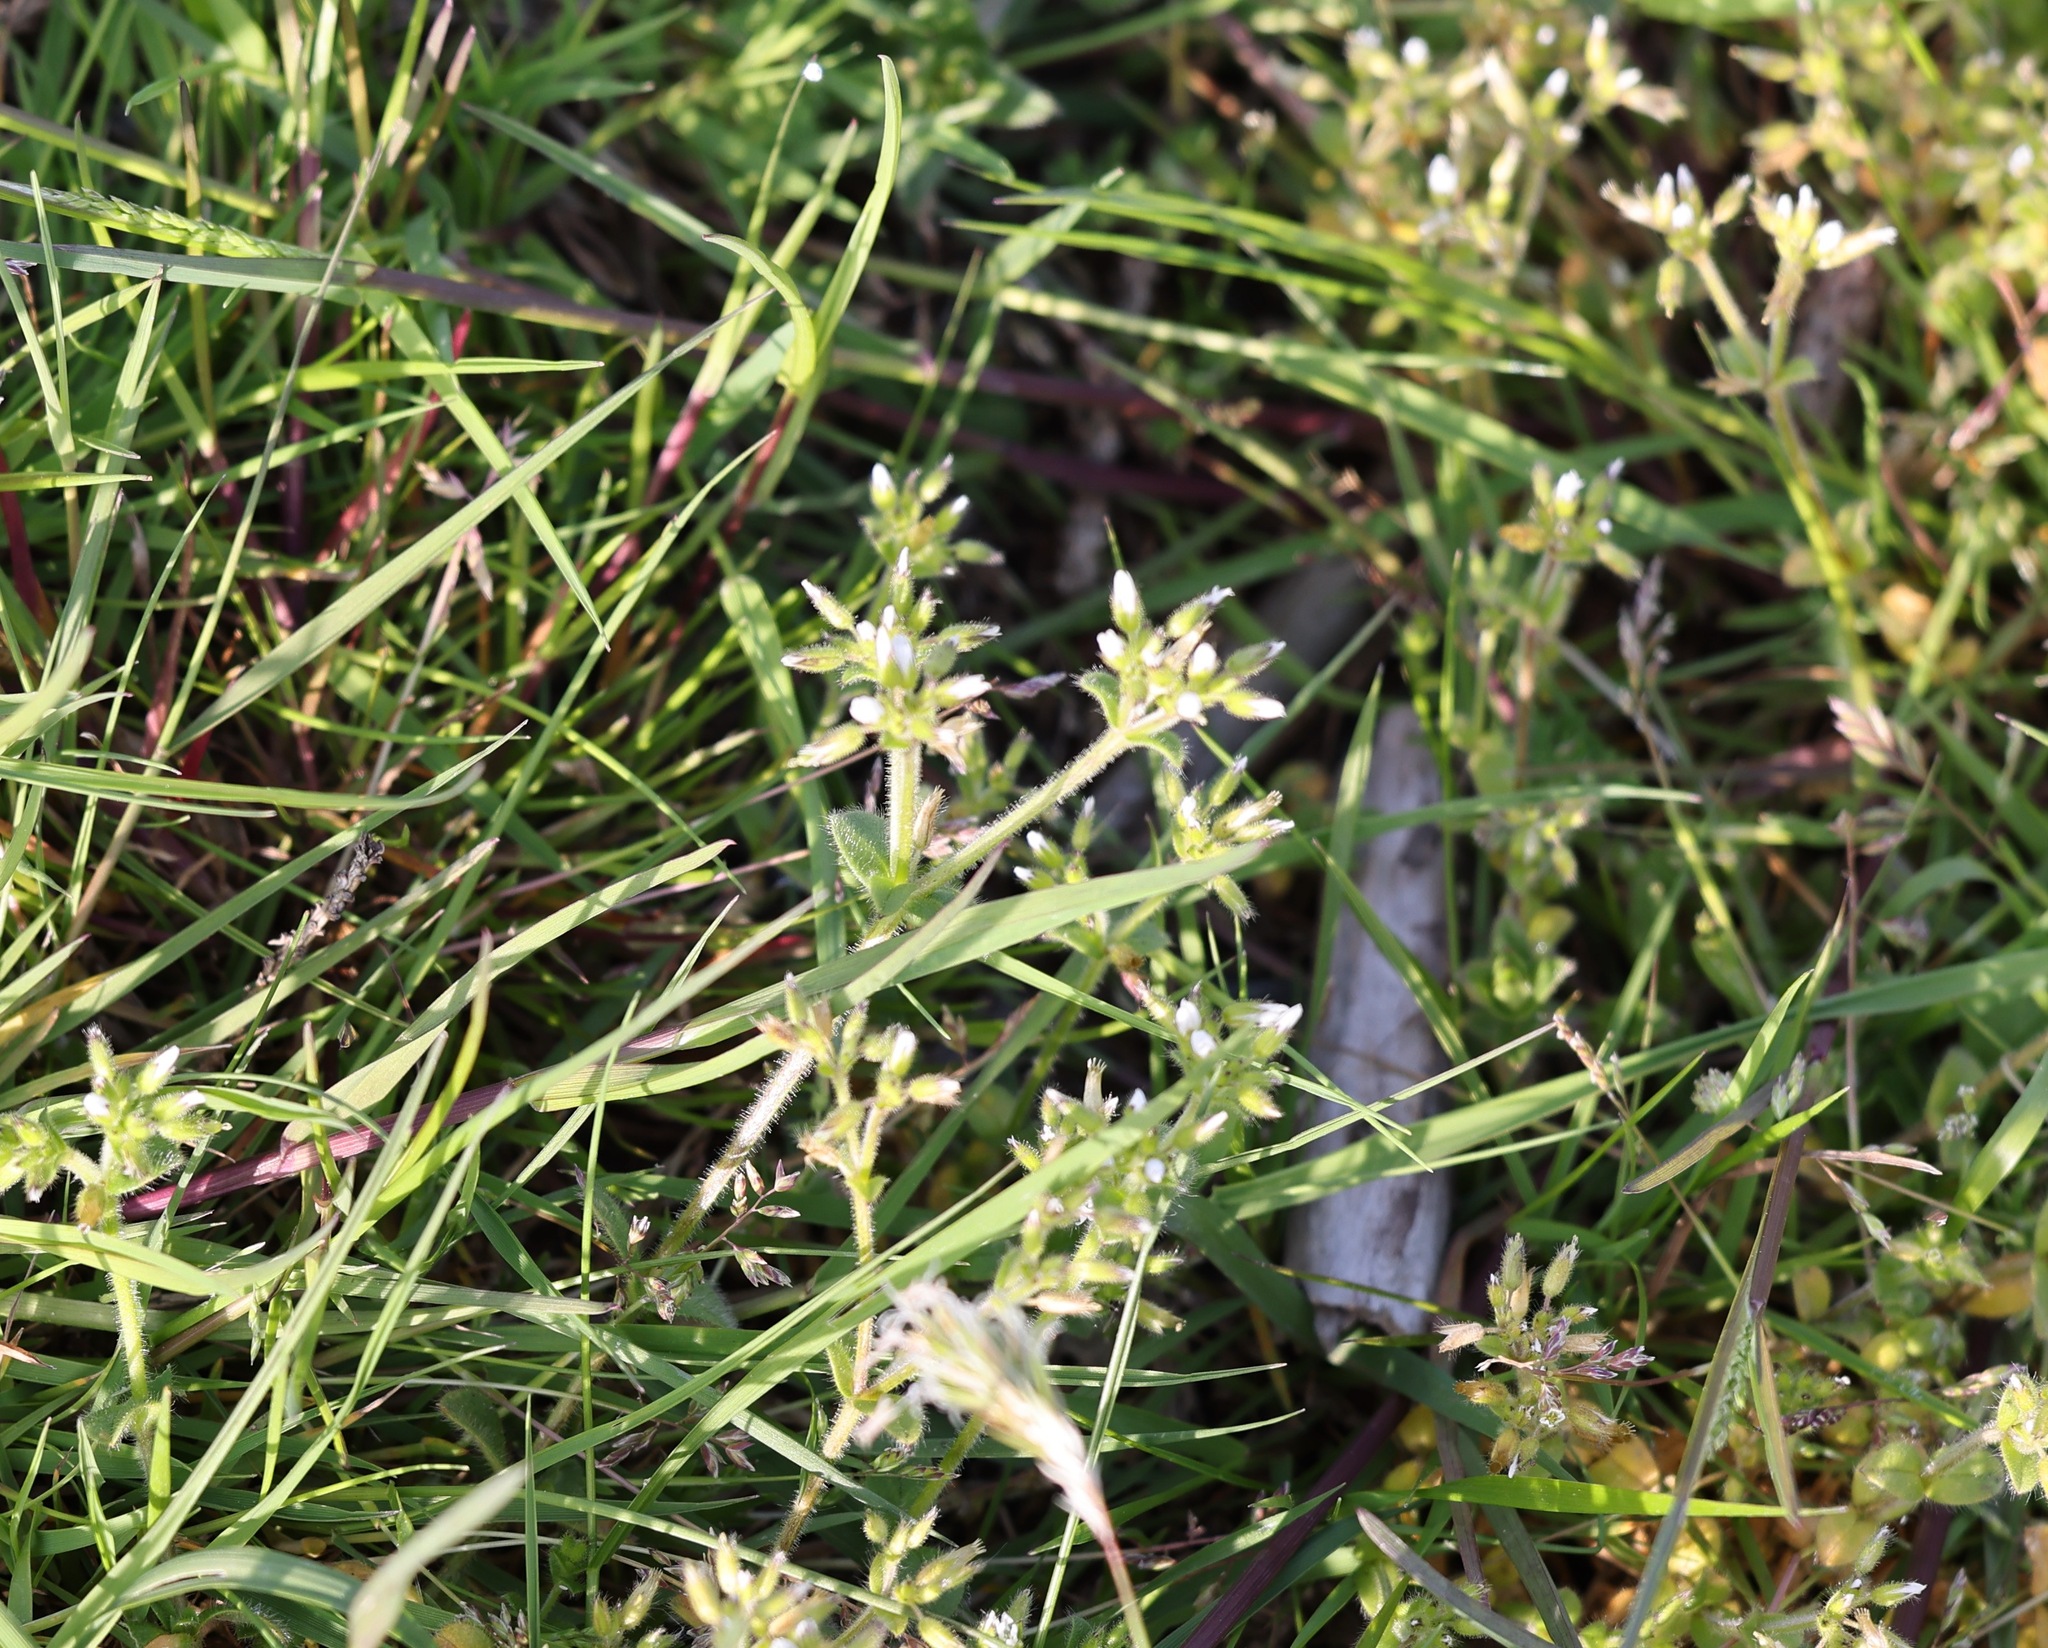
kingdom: Plantae
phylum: Tracheophyta
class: Magnoliopsida
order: Caryophyllales
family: Caryophyllaceae
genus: Cerastium
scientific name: Cerastium glomeratum
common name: Sticky chickweed
